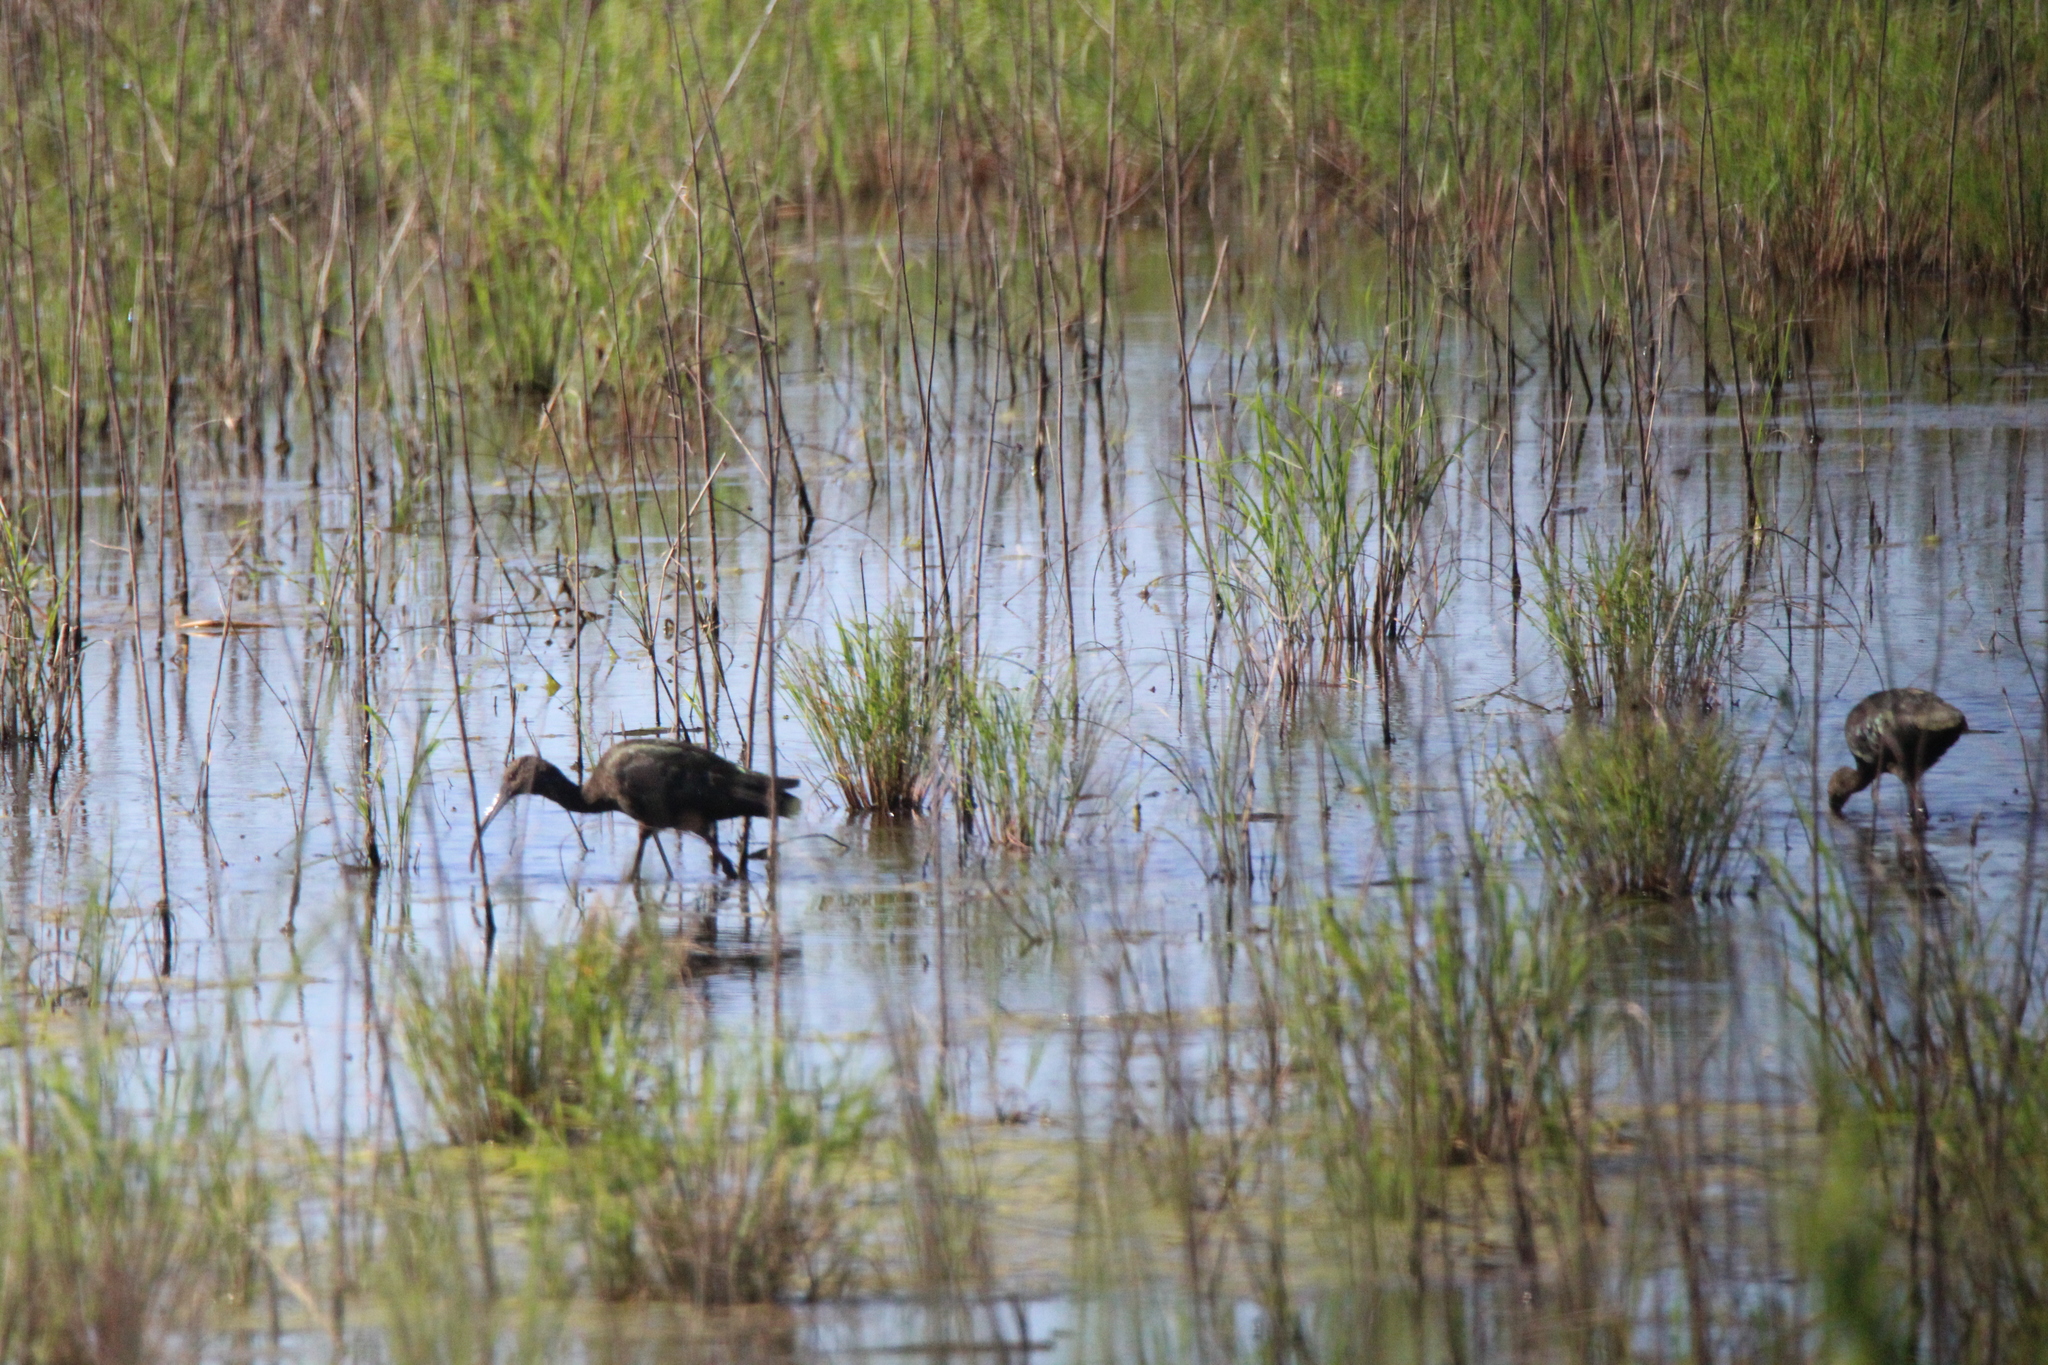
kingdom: Animalia
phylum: Chordata
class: Aves
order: Pelecaniformes
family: Threskiornithidae
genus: Plegadis
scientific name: Plegadis falcinellus
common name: Glossy ibis
